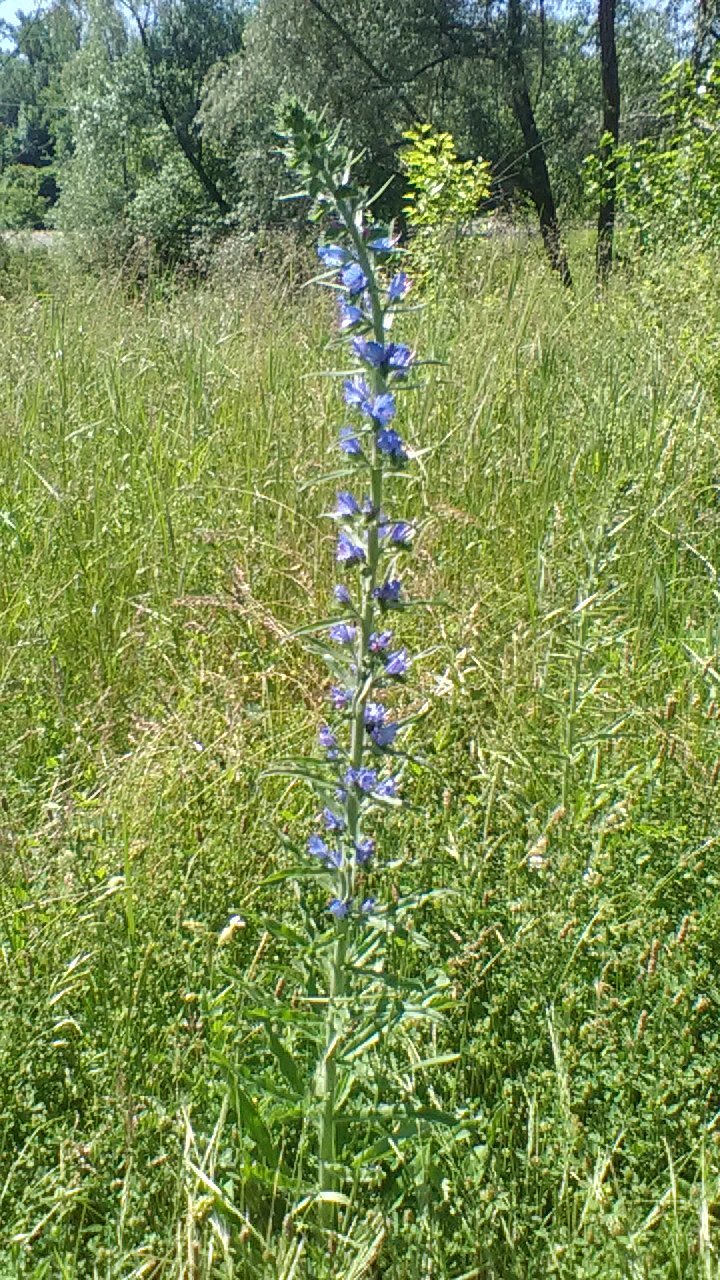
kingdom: Plantae
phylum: Tracheophyta
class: Magnoliopsida
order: Boraginales
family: Boraginaceae
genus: Echium
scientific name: Echium vulgare
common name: Common viper's bugloss
